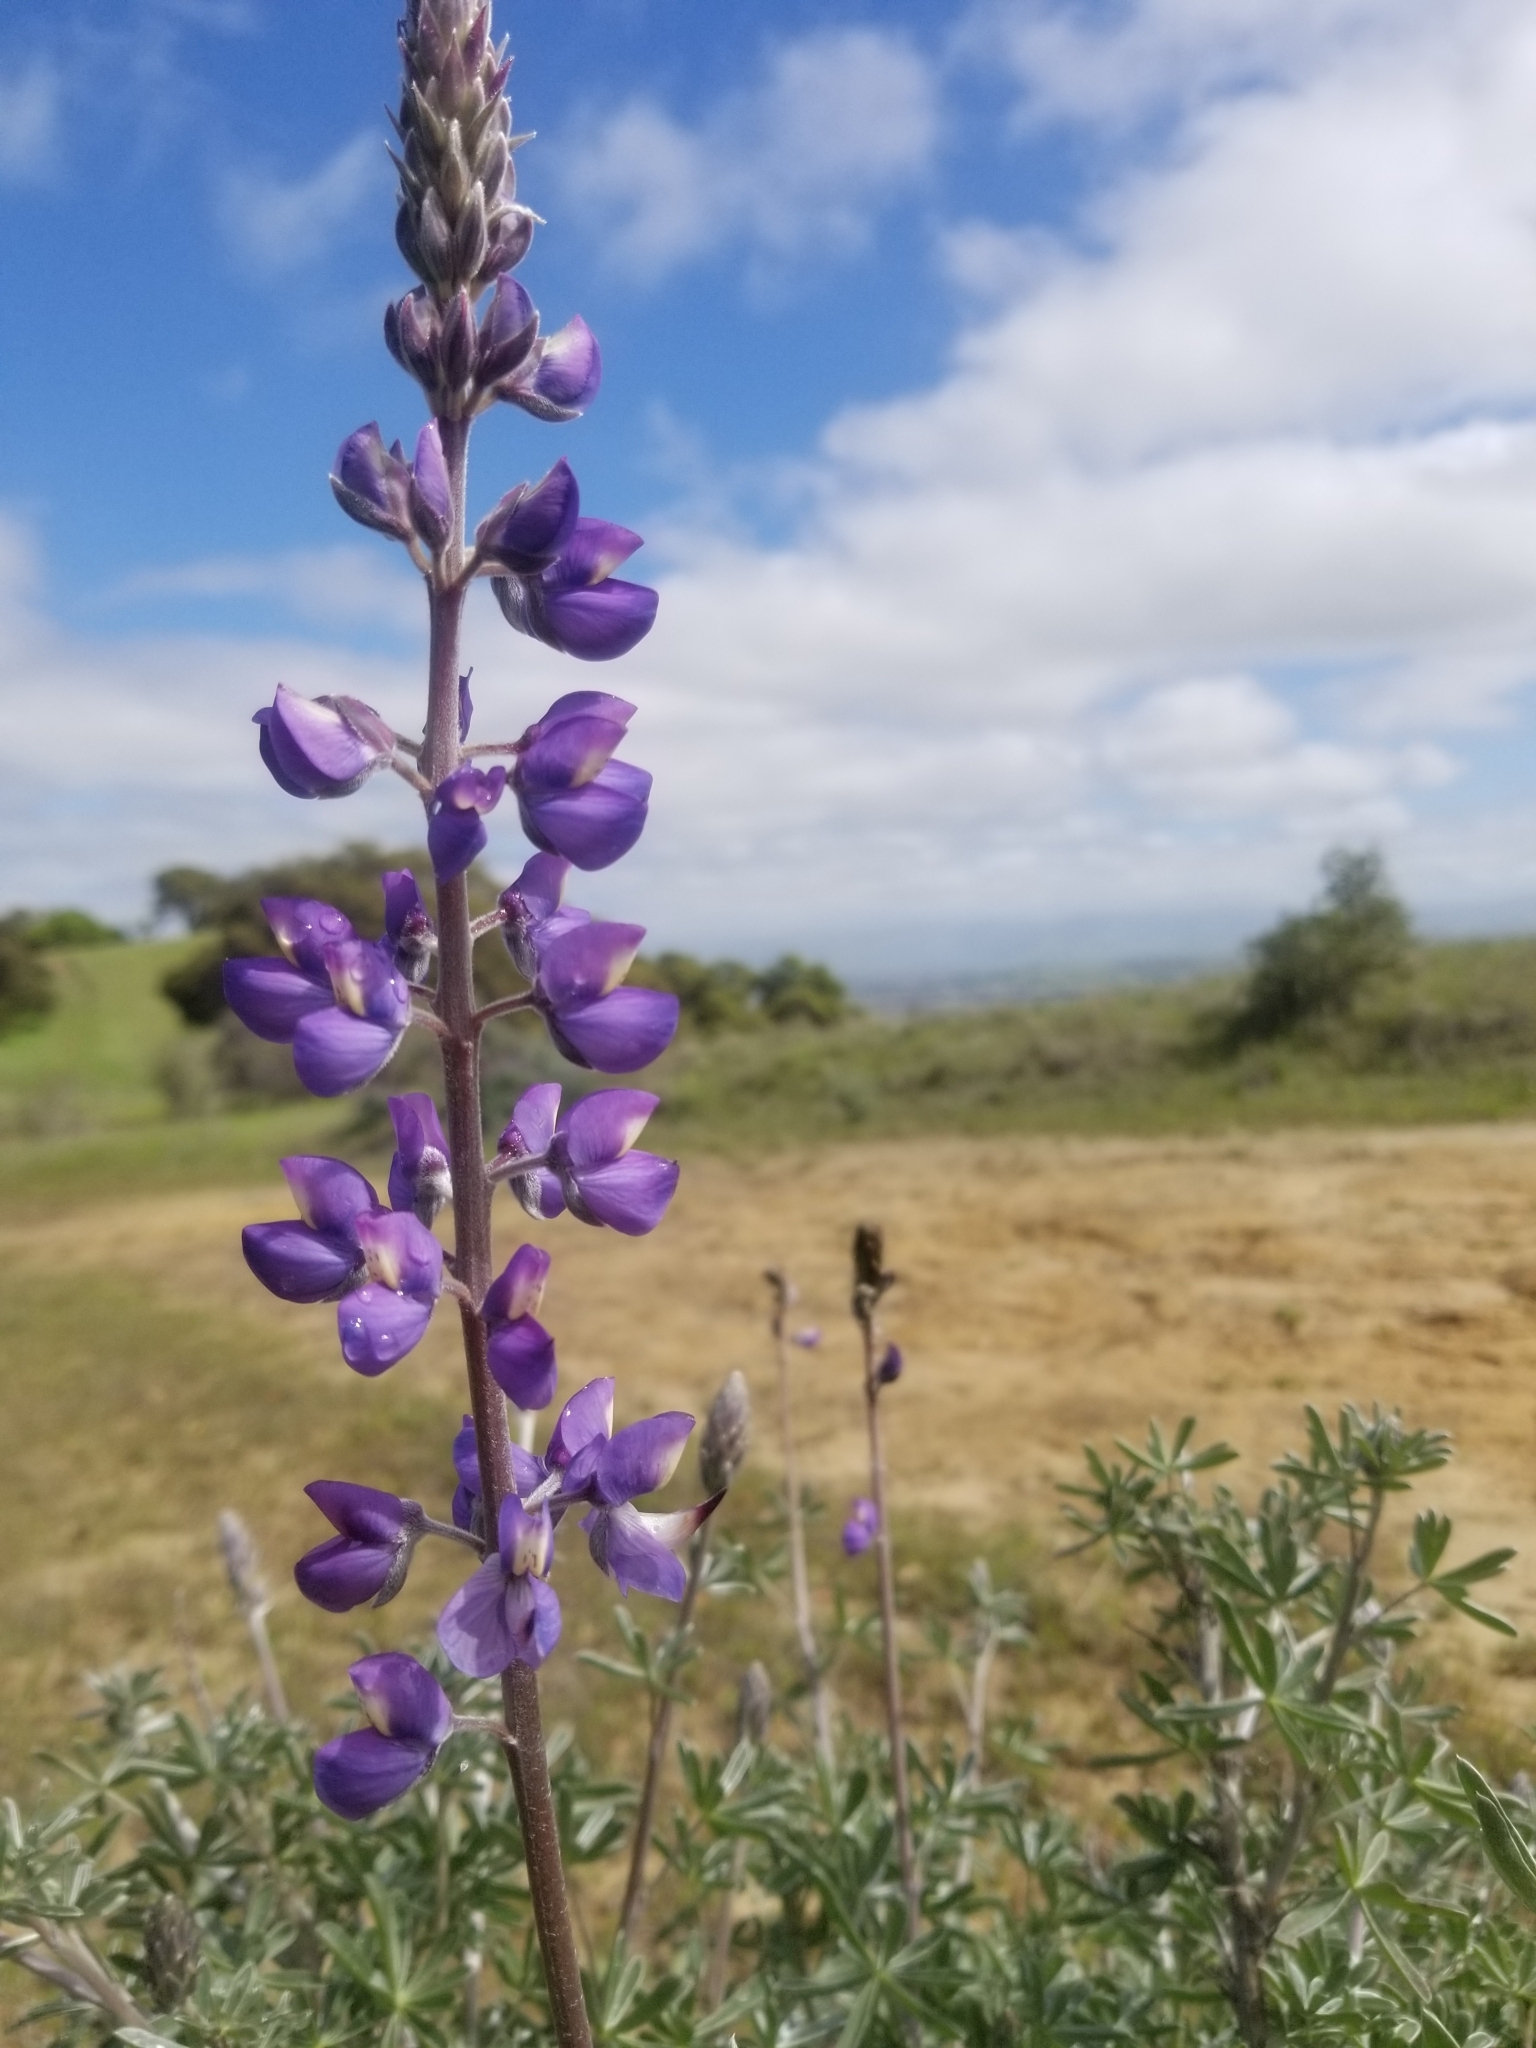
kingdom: Plantae
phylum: Tracheophyta
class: Magnoliopsida
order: Fabales
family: Fabaceae
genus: Lupinus
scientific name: Lupinus albifrons
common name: Foothill lupine
